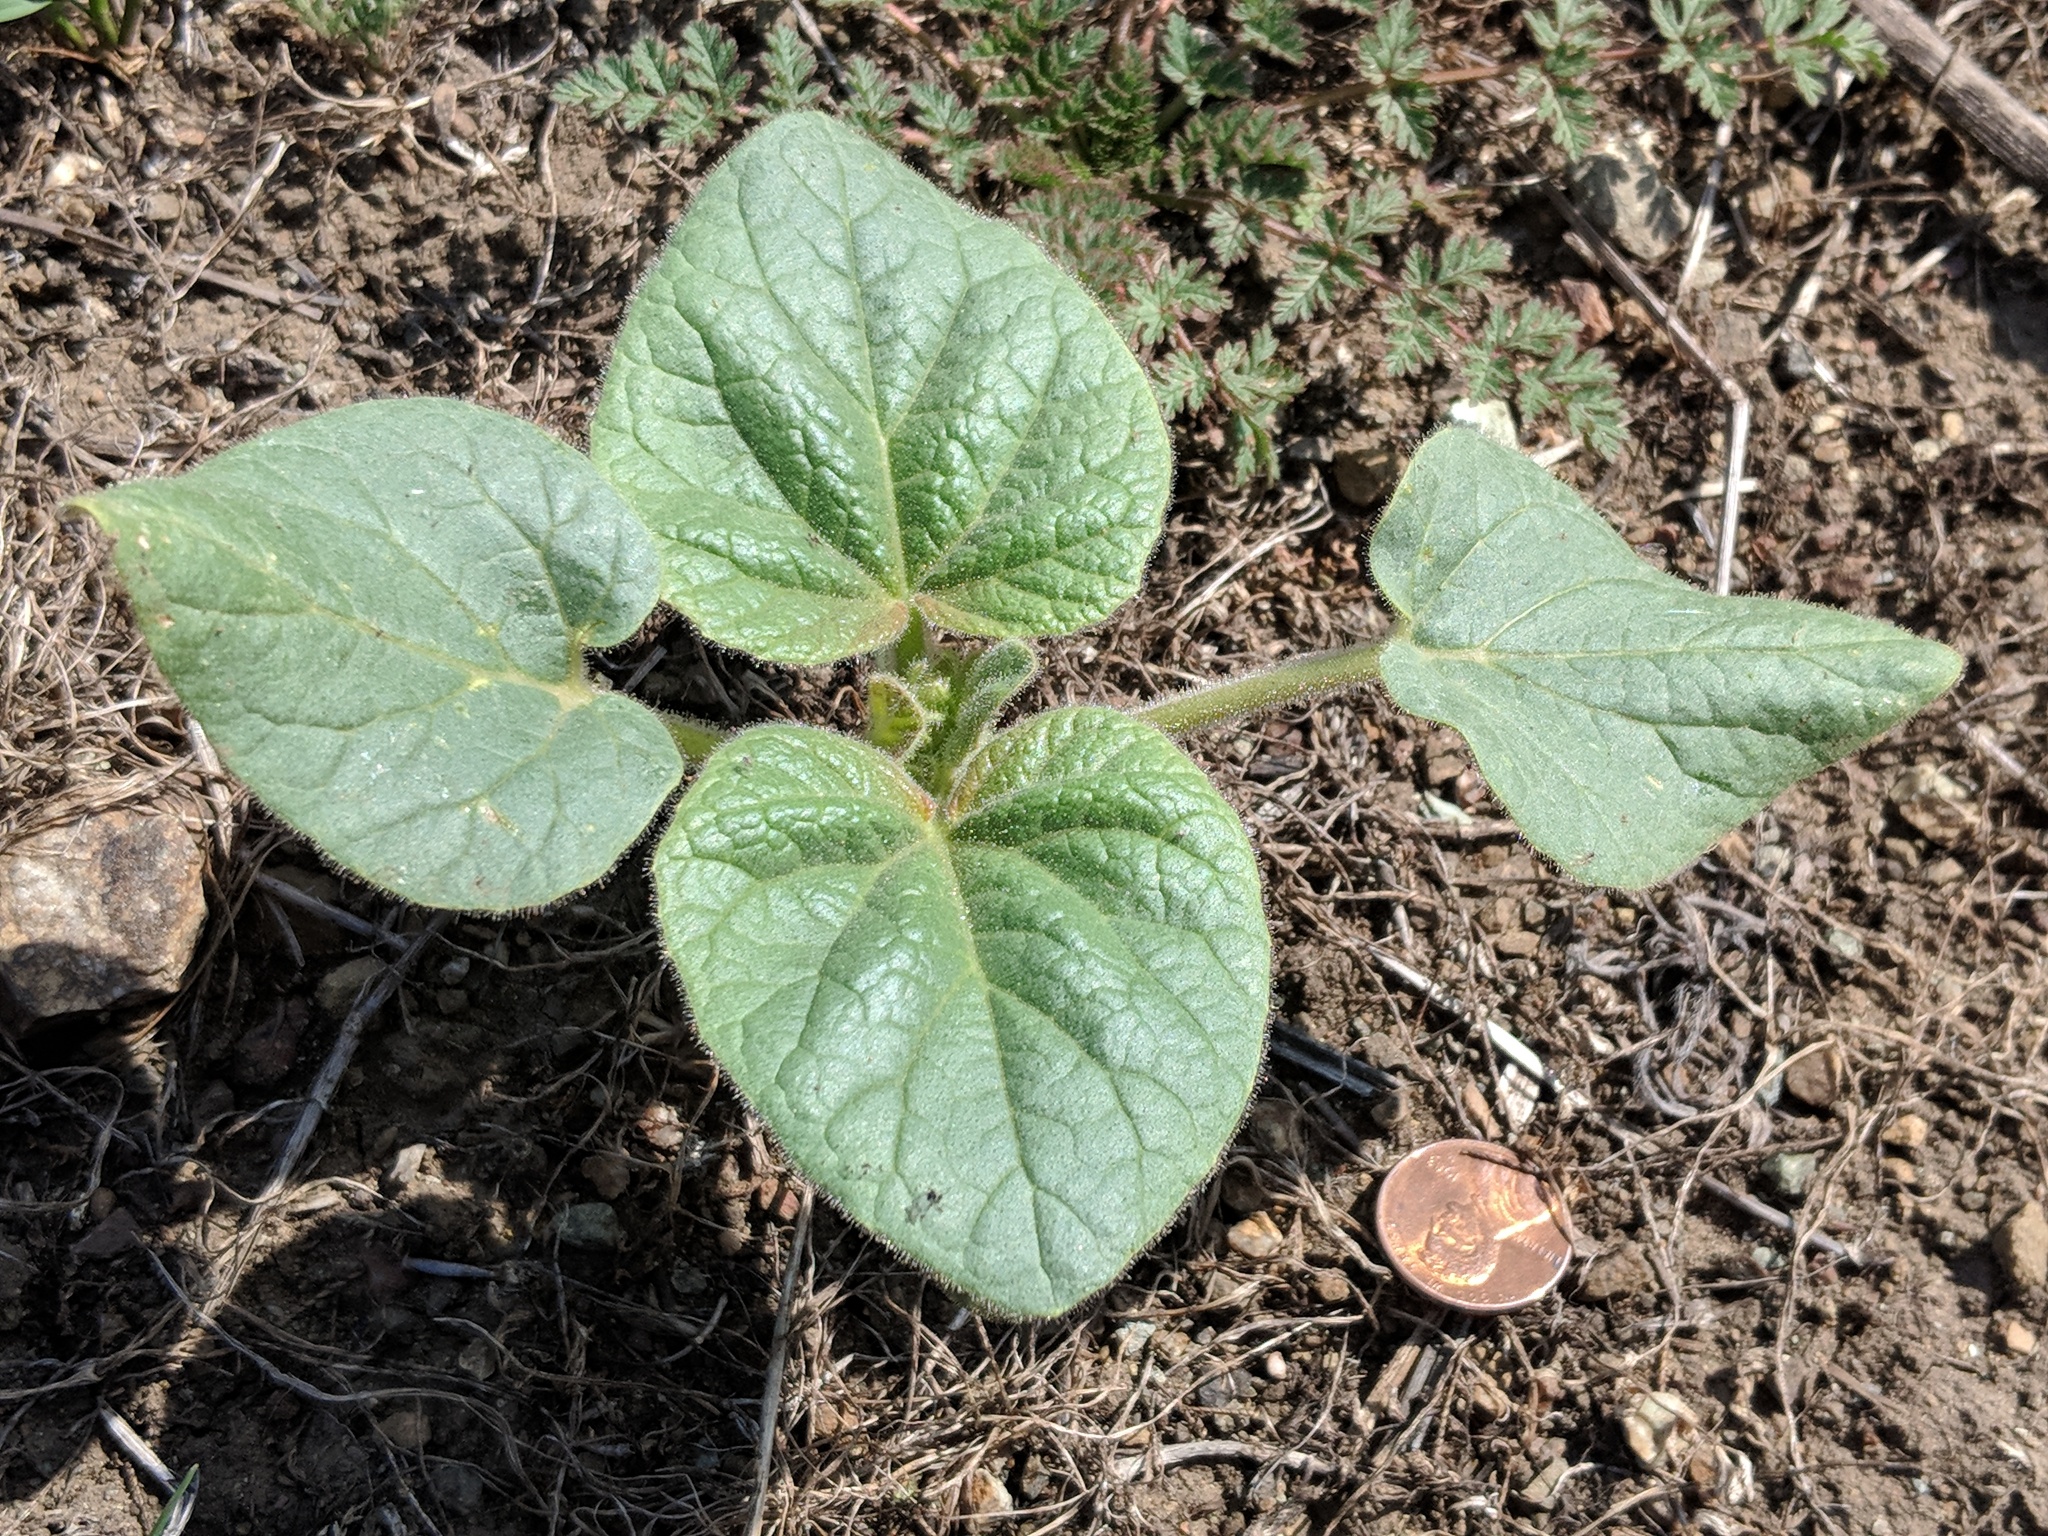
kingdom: Plantae
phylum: Tracheophyta
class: Magnoliopsida
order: Lamiales
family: Martyniaceae
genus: Proboscidea
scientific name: Proboscidea louisianica
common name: Elephant tusks
